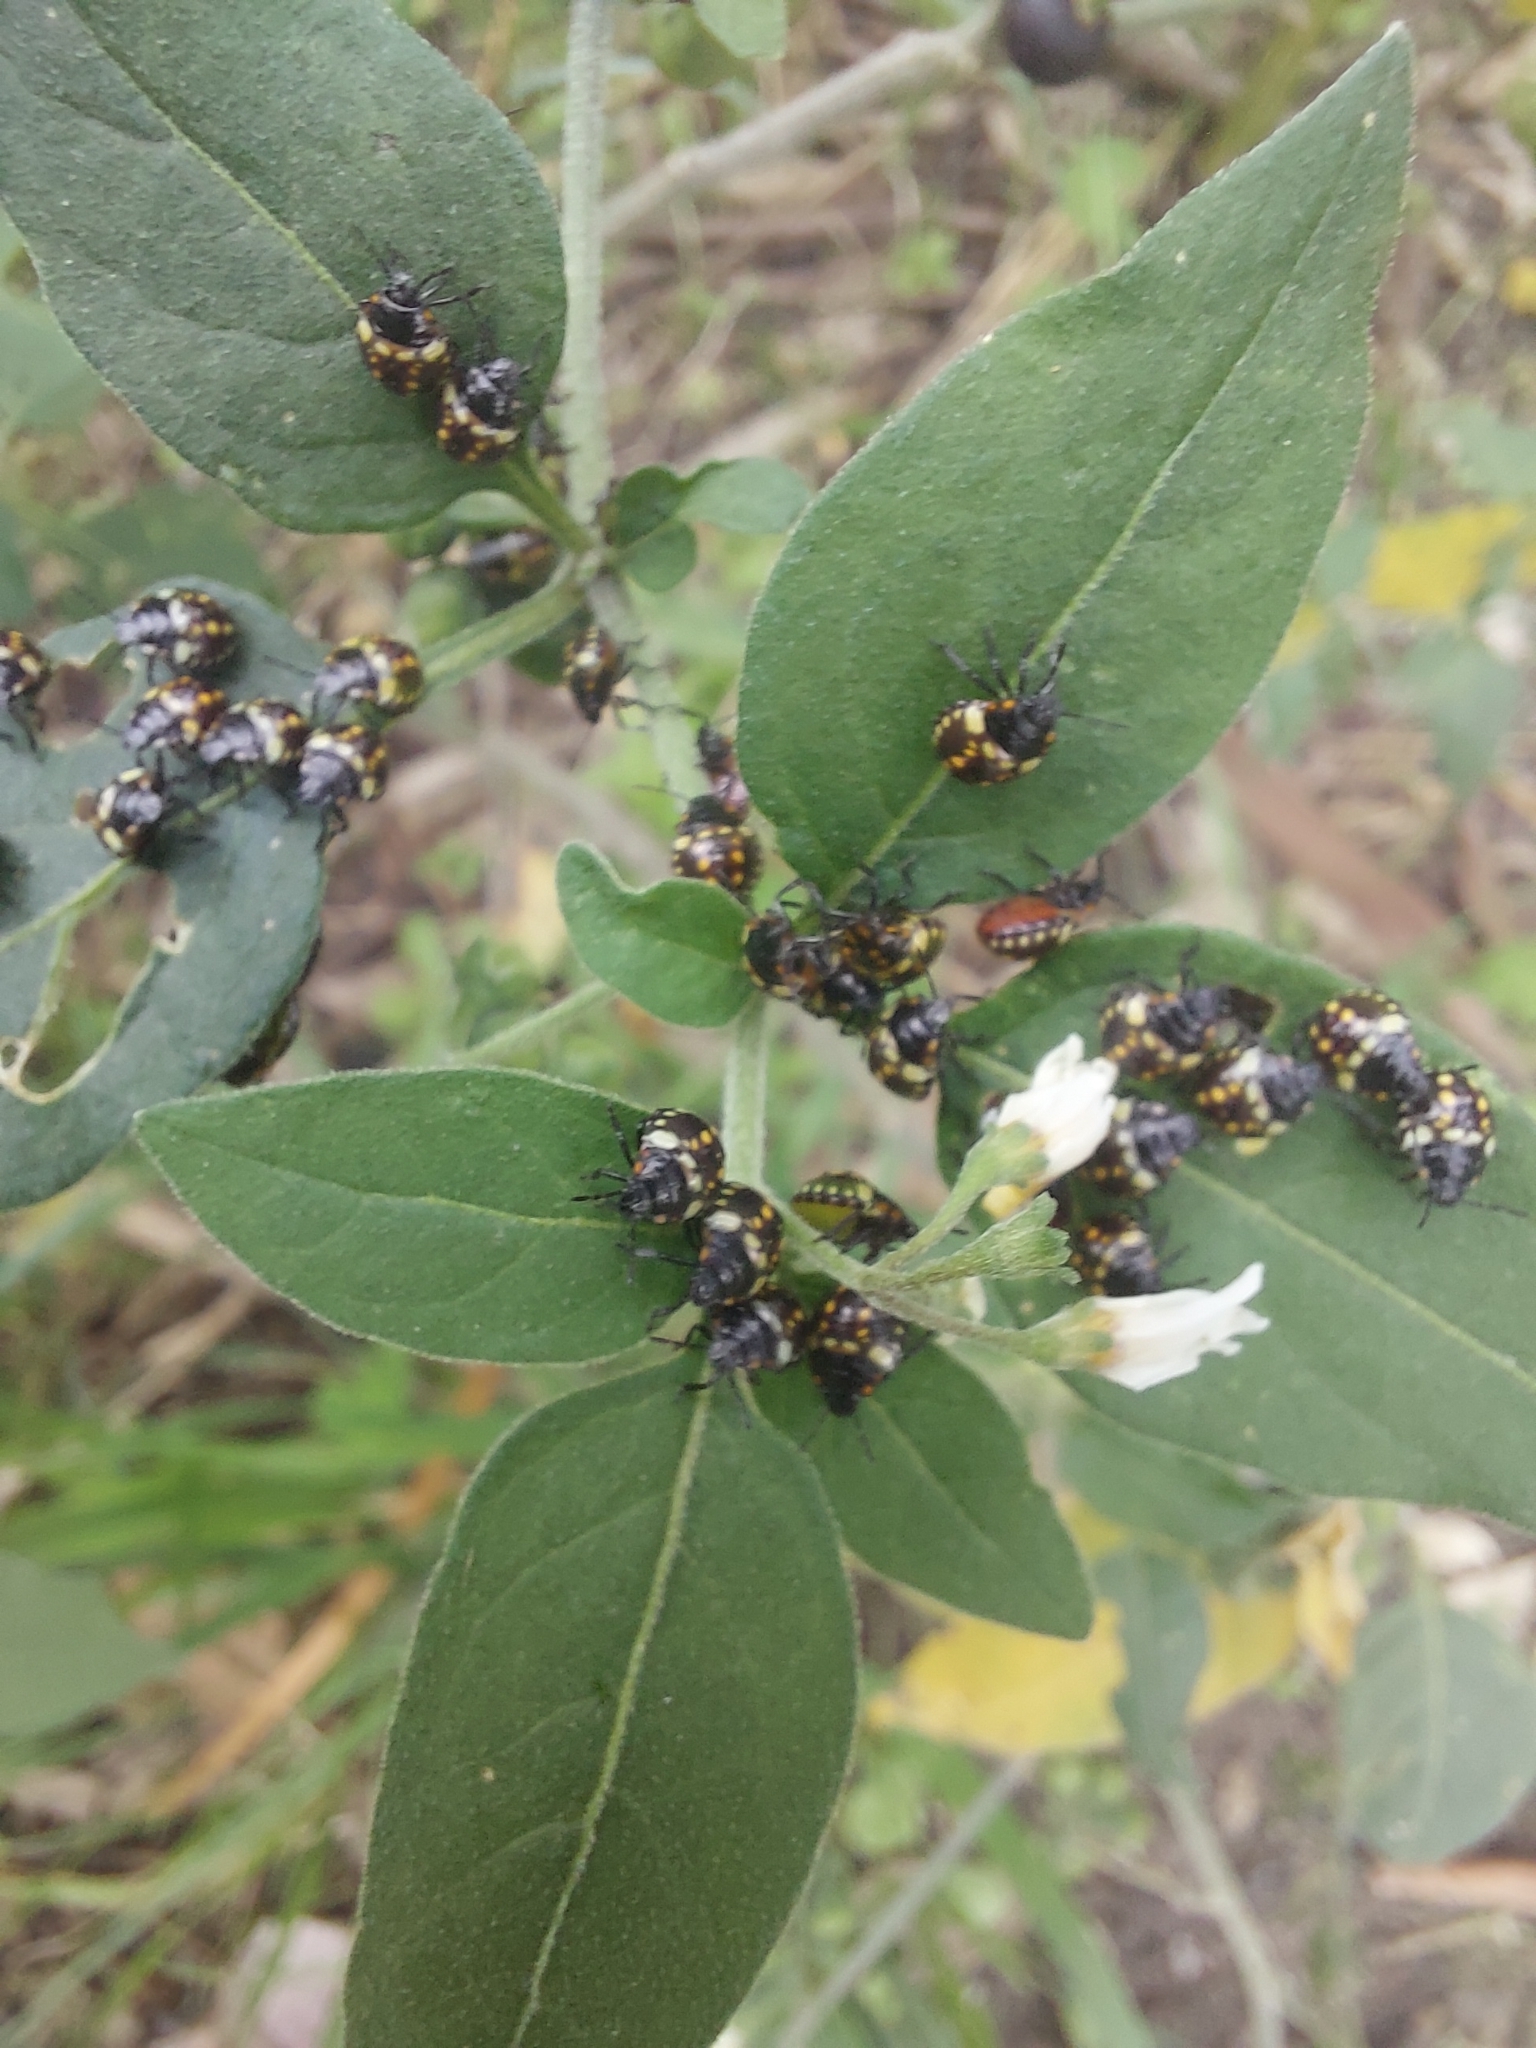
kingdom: Animalia
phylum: Arthropoda
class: Insecta
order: Hemiptera
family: Pentatomidae
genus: Nezara
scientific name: Nezara viridula
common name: Southern green stink bug
